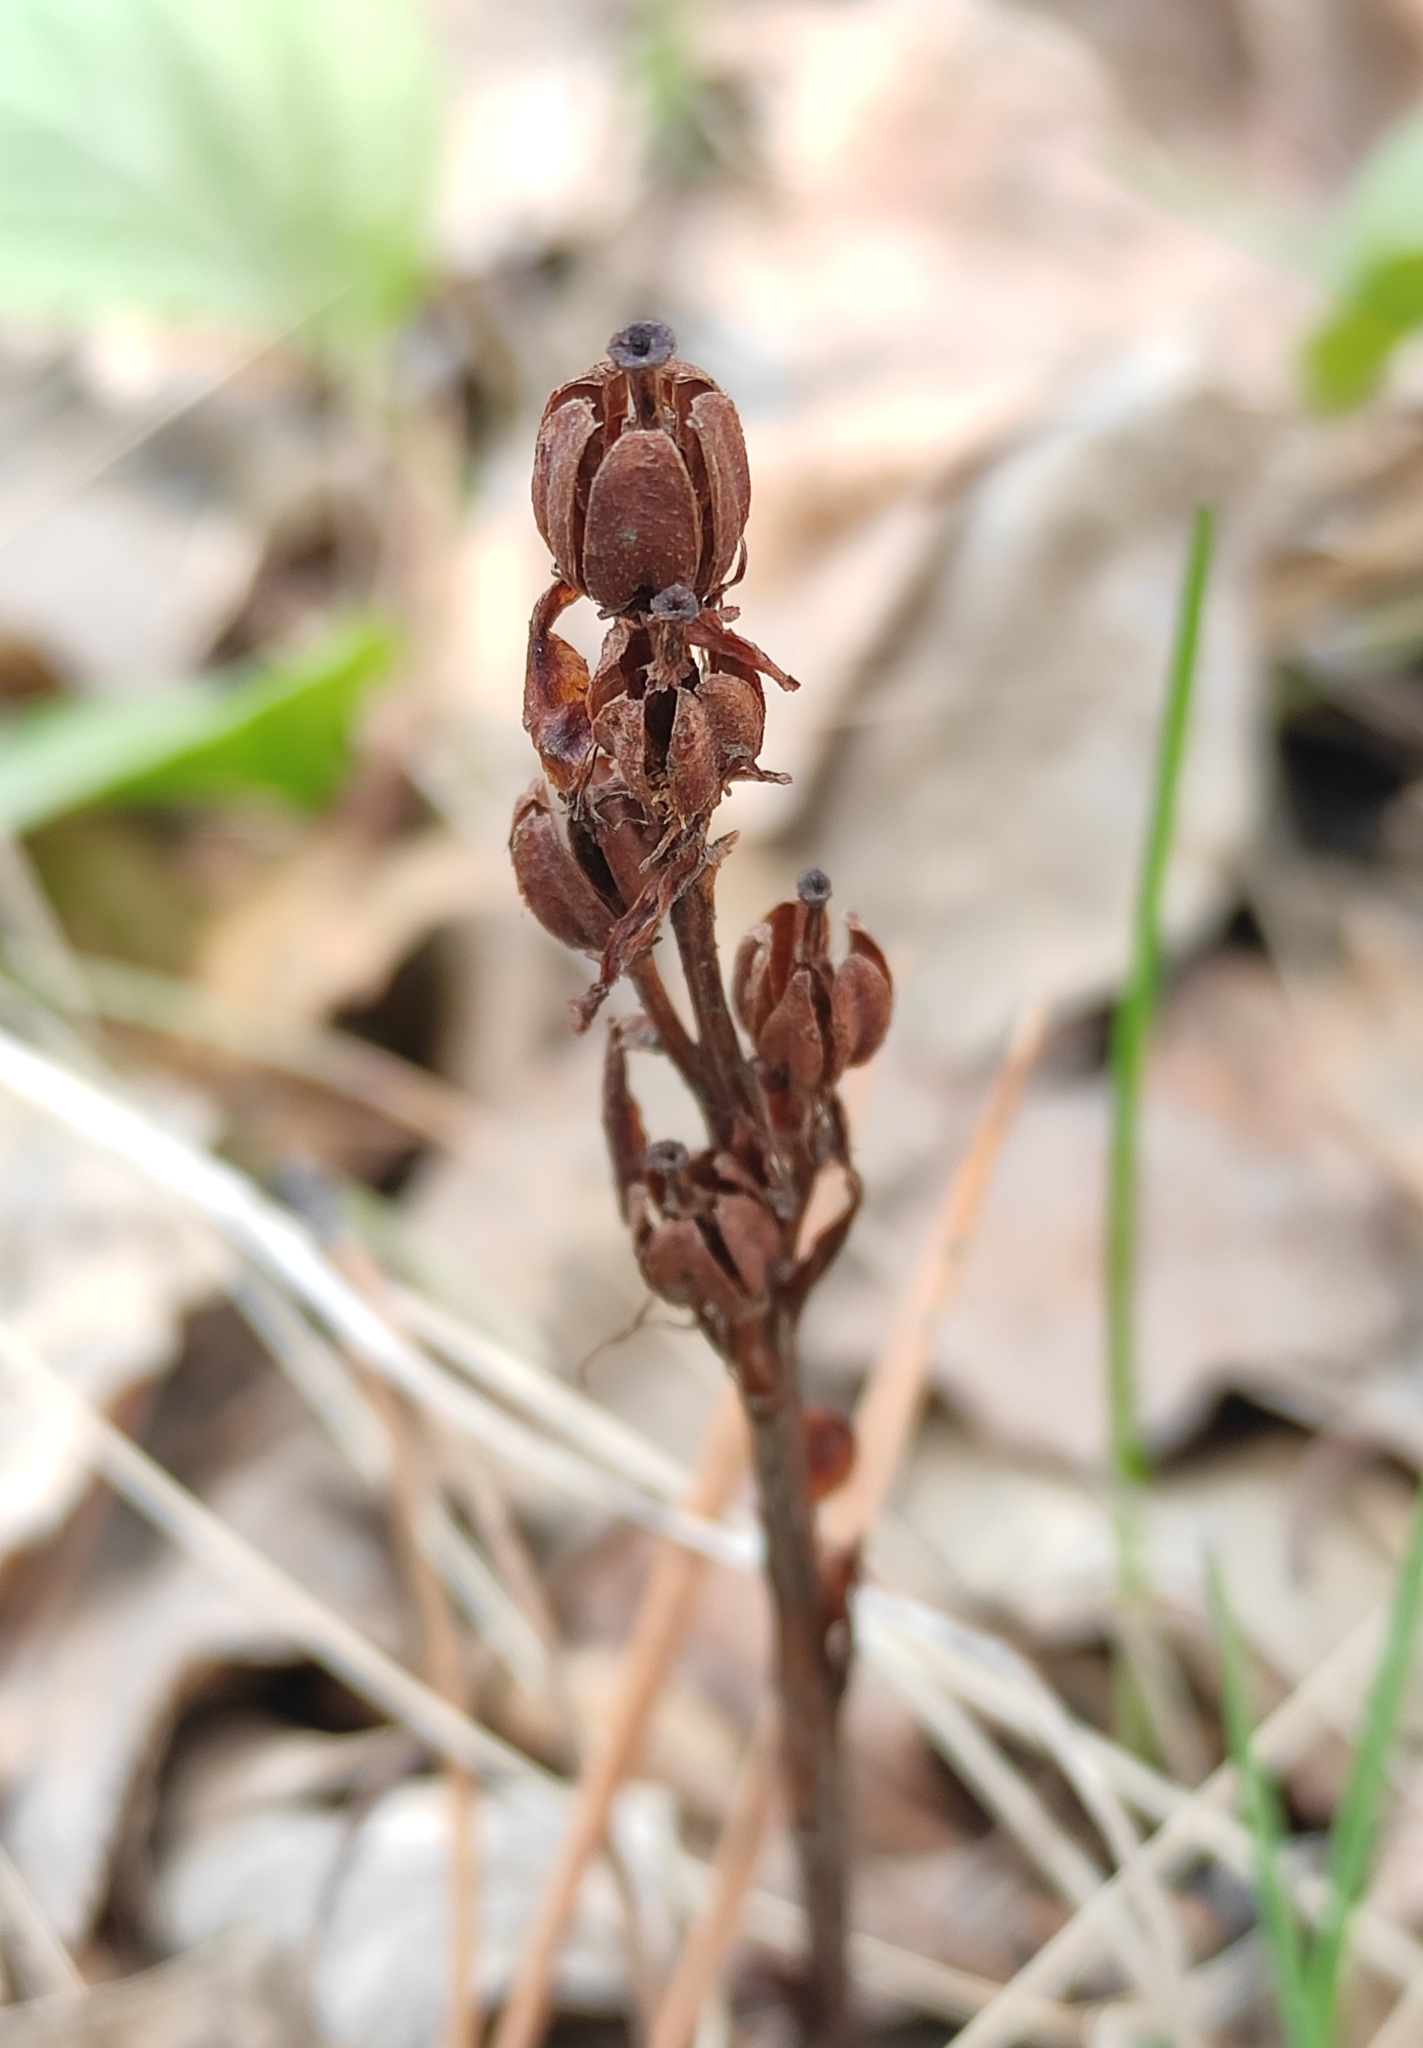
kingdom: Plantae
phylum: Tracheophyta
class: Magnoliopsida
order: Ericales
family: Ericaceae
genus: Hypopitys
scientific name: Hypopitys monotropa
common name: Yellow bird's-nest
